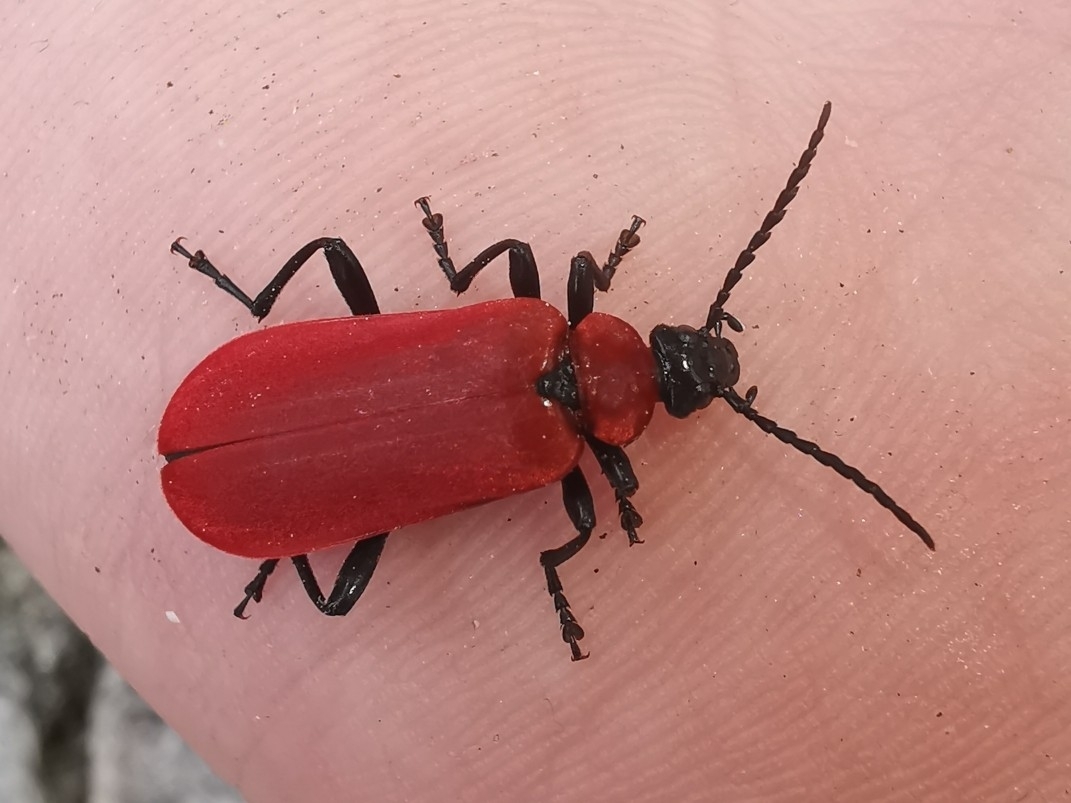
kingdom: Animalia
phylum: Arthropoda
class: Insecta
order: Coleoptera
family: Pyrochroidae
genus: Pyrochroa
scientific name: Pyrochroa coccinea
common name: Black-headed cardinal beetle
